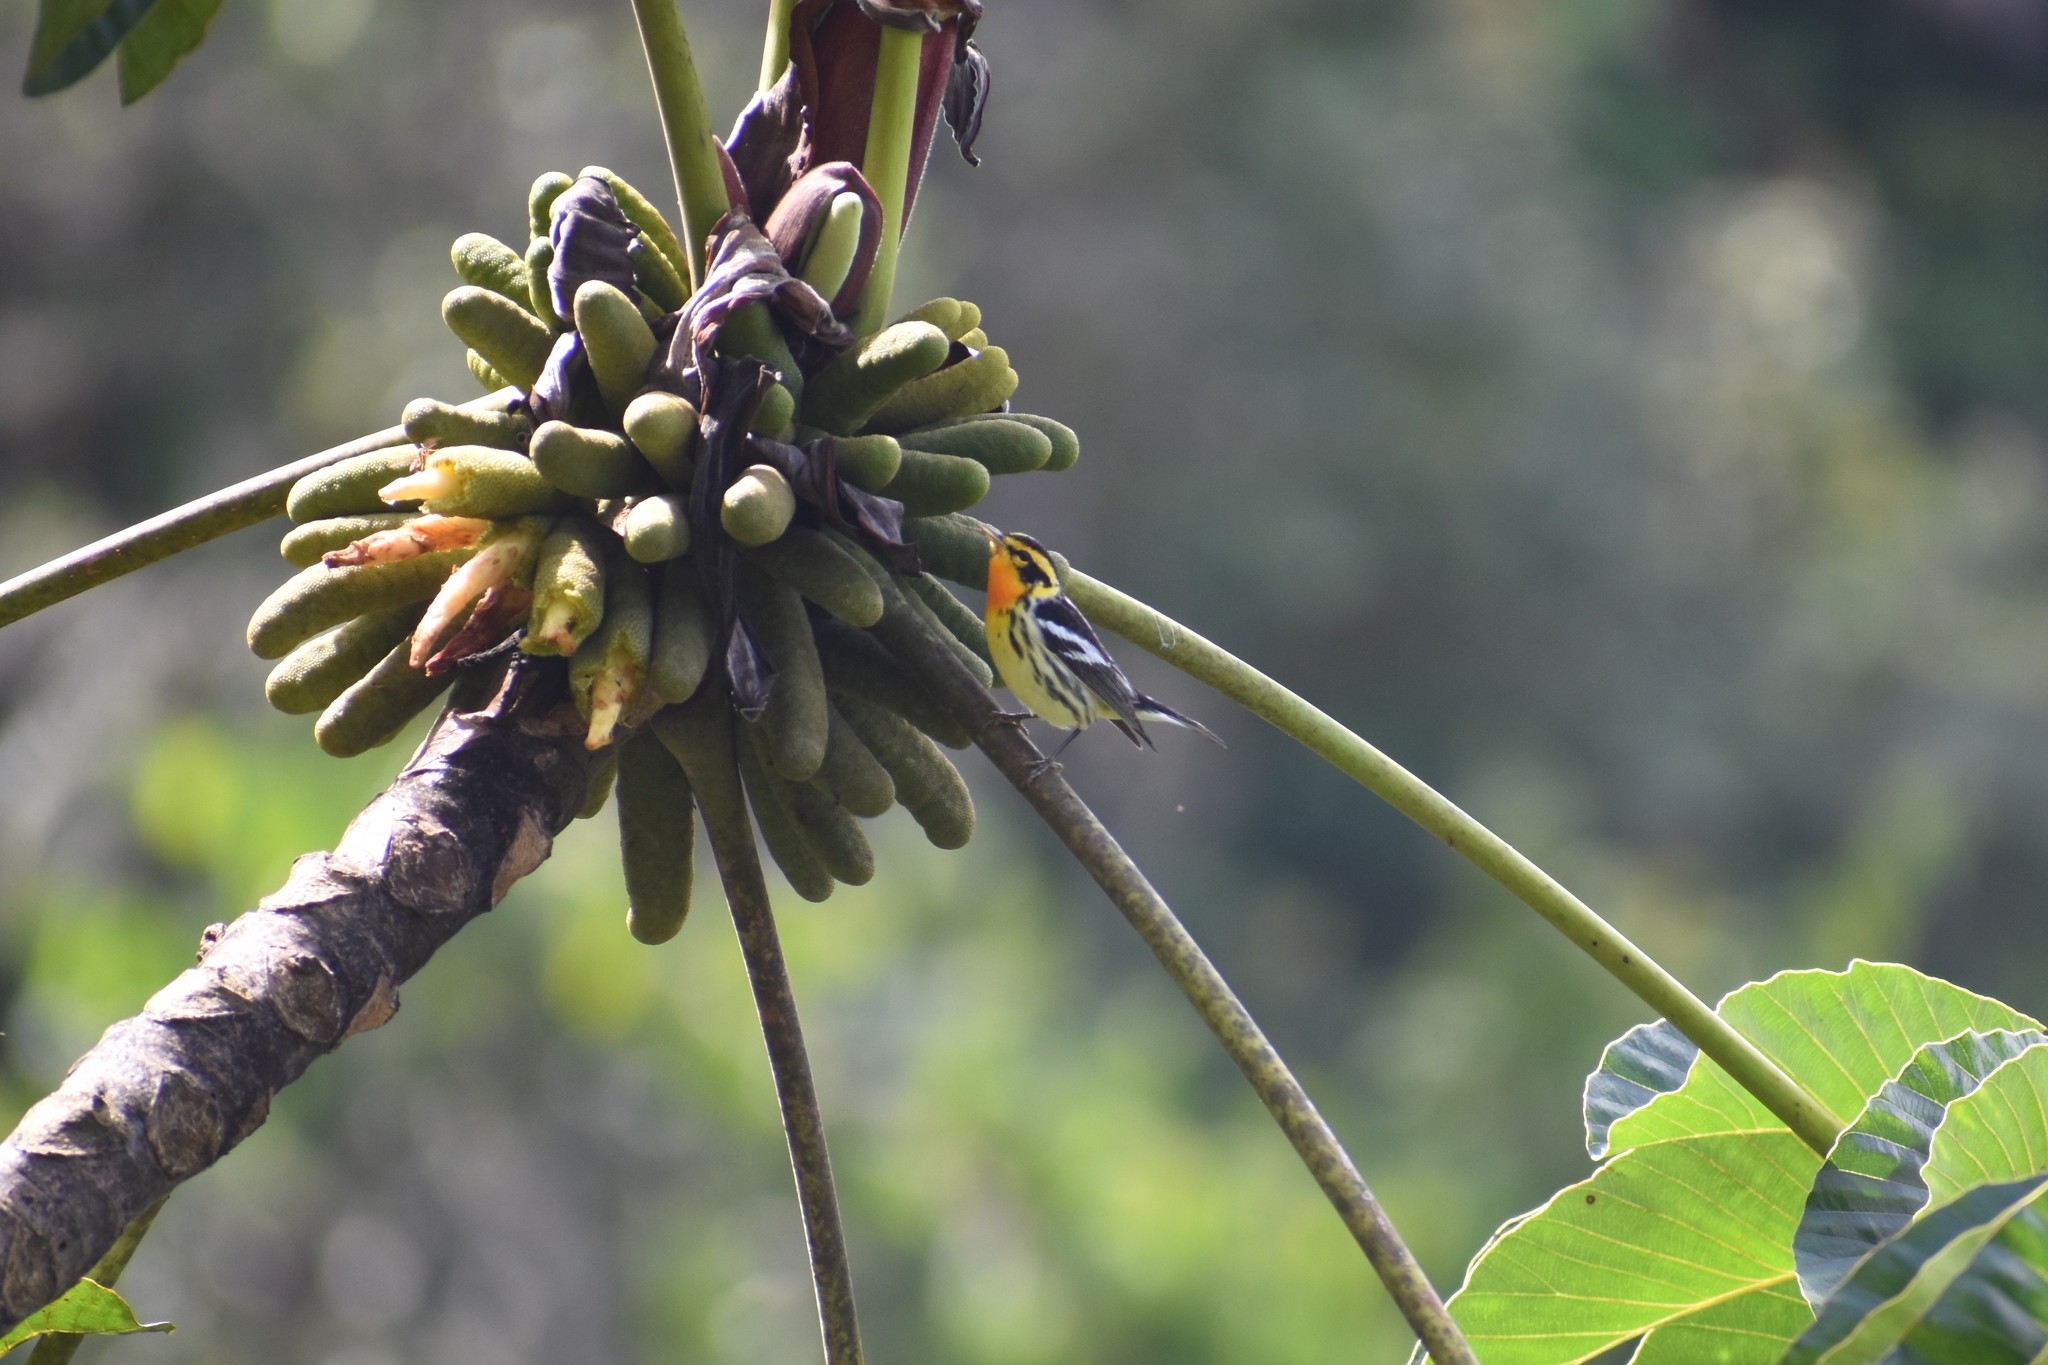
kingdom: Animalia
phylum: Chordata
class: Aves
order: Passeriformes
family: Parulidae
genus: Setophaga
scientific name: Setophaga fusca
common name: Blackburnian warbler
